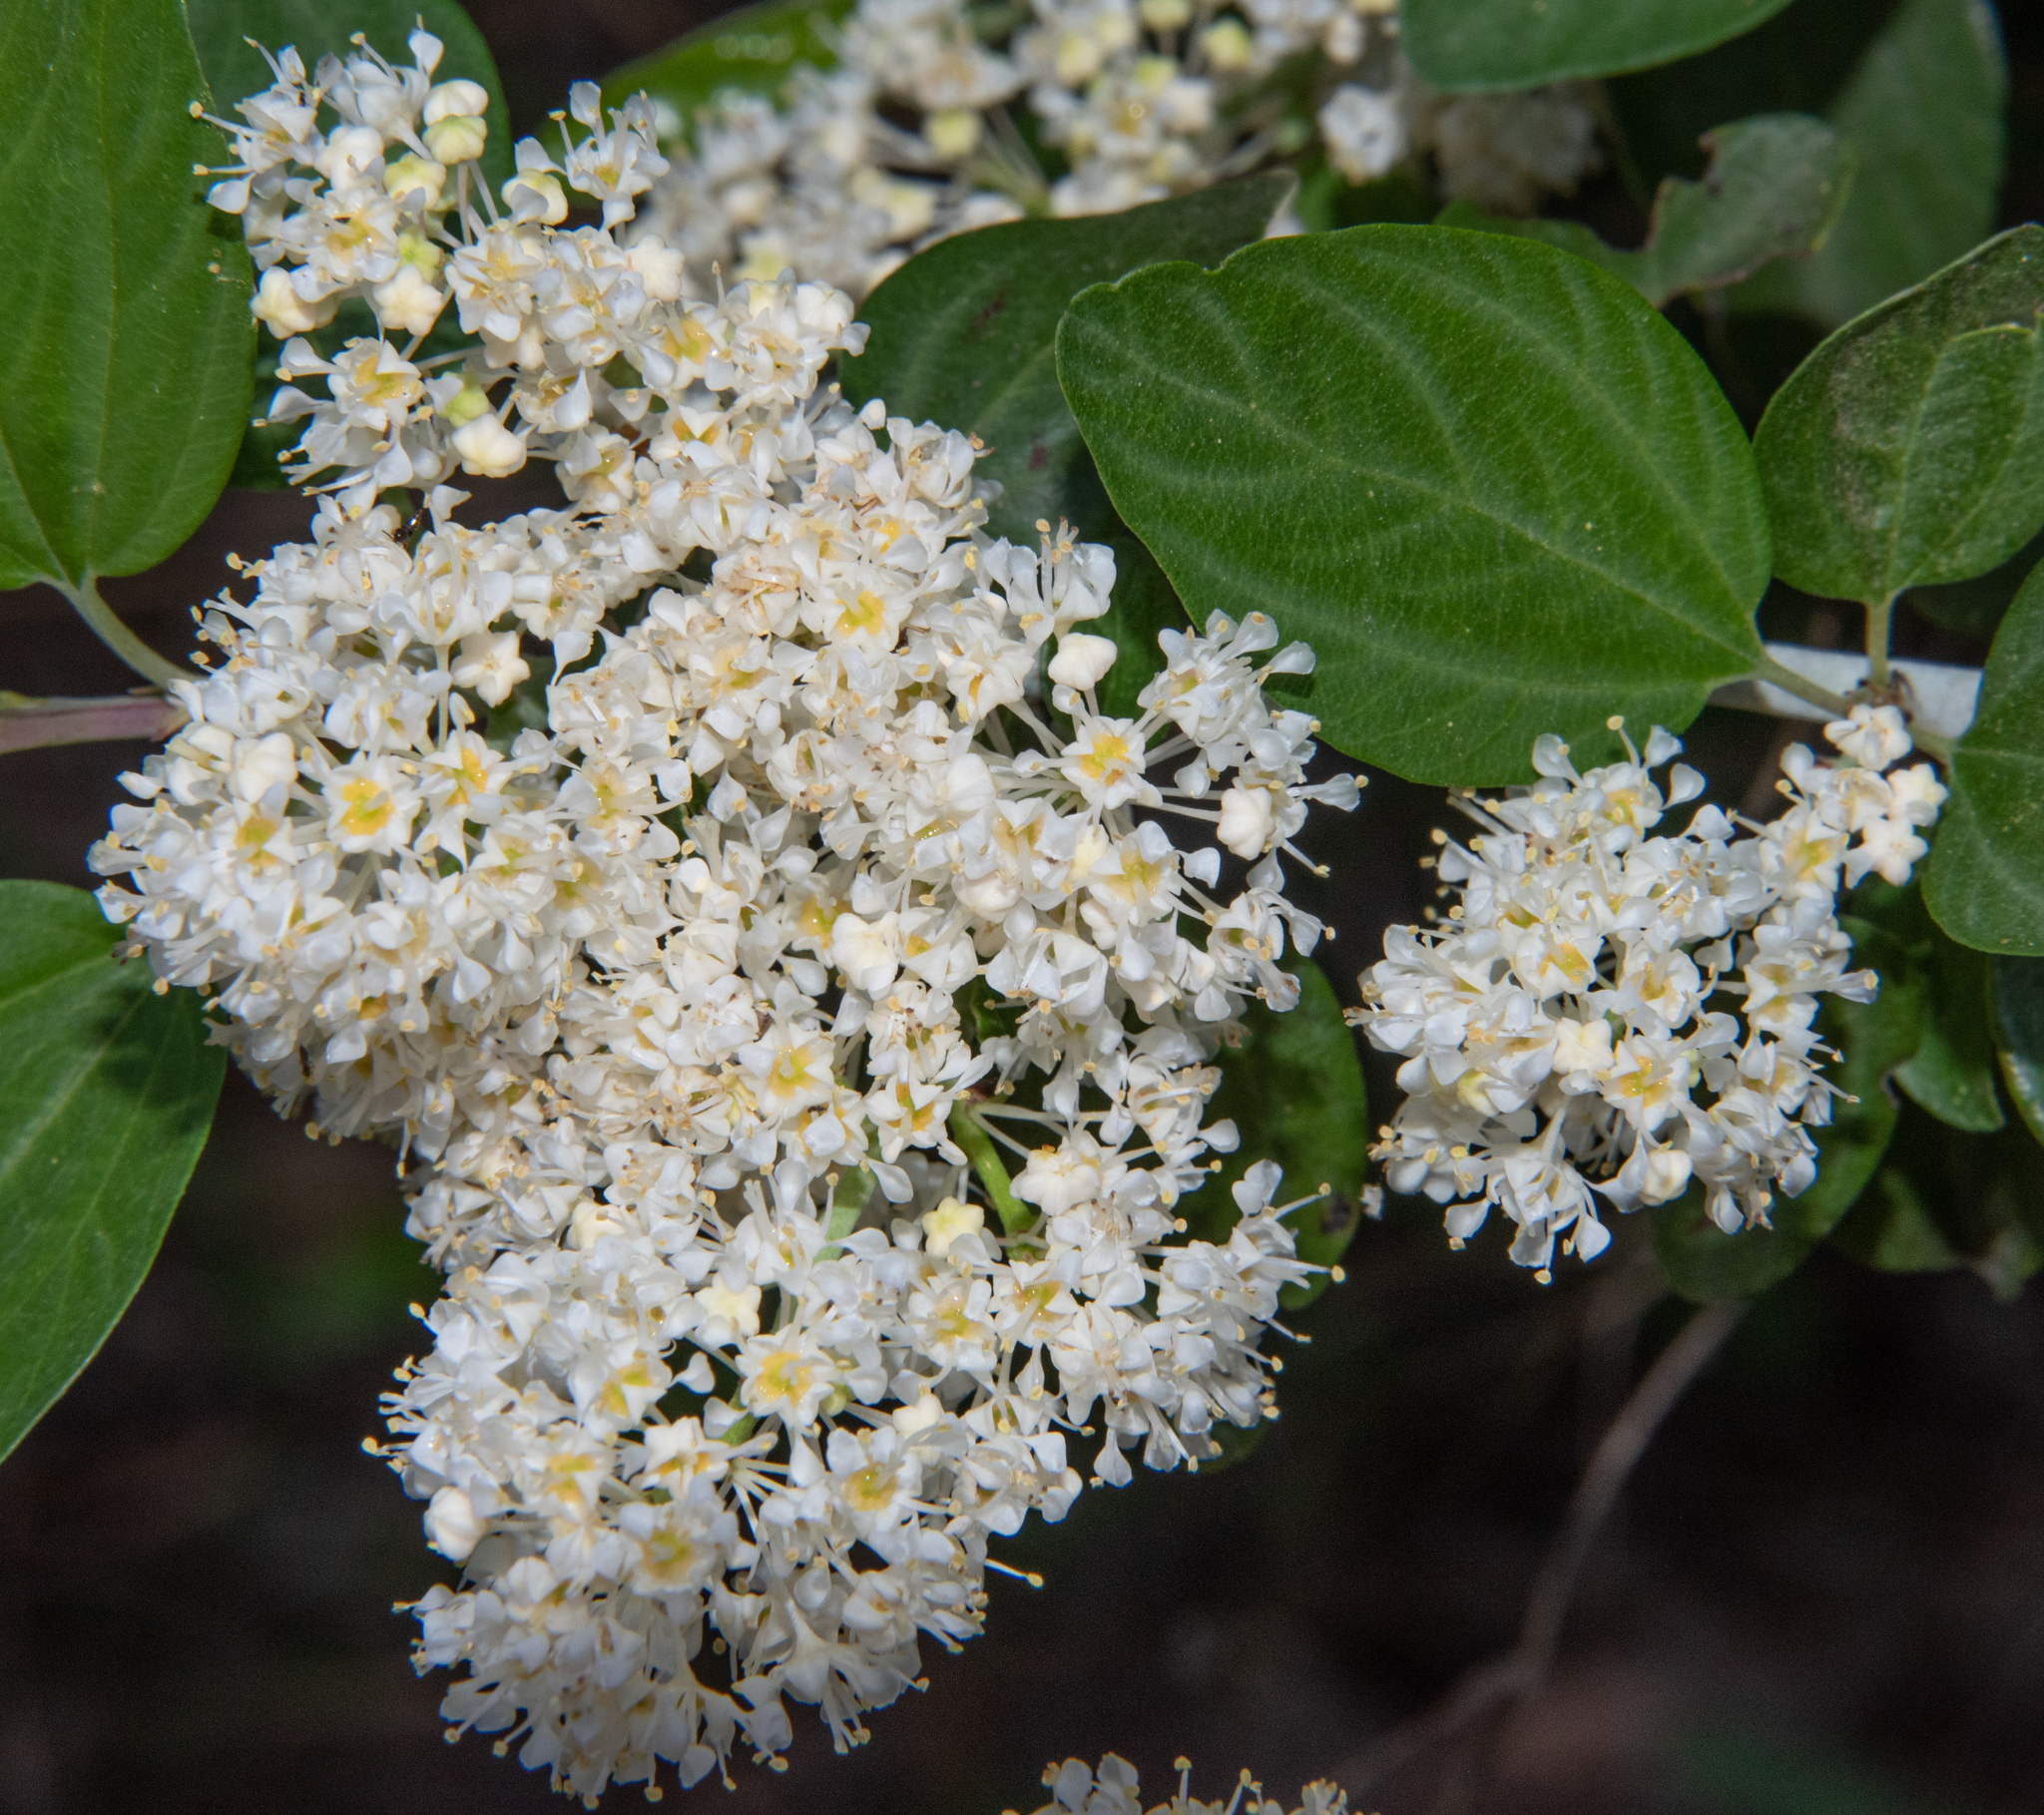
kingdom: Plantae
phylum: Tracheophyta
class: Magnoliopsida
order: Rosales
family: Rhamnaceae
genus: Ceanothus
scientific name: Ceanothus incanus
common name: Coast whitethorn
